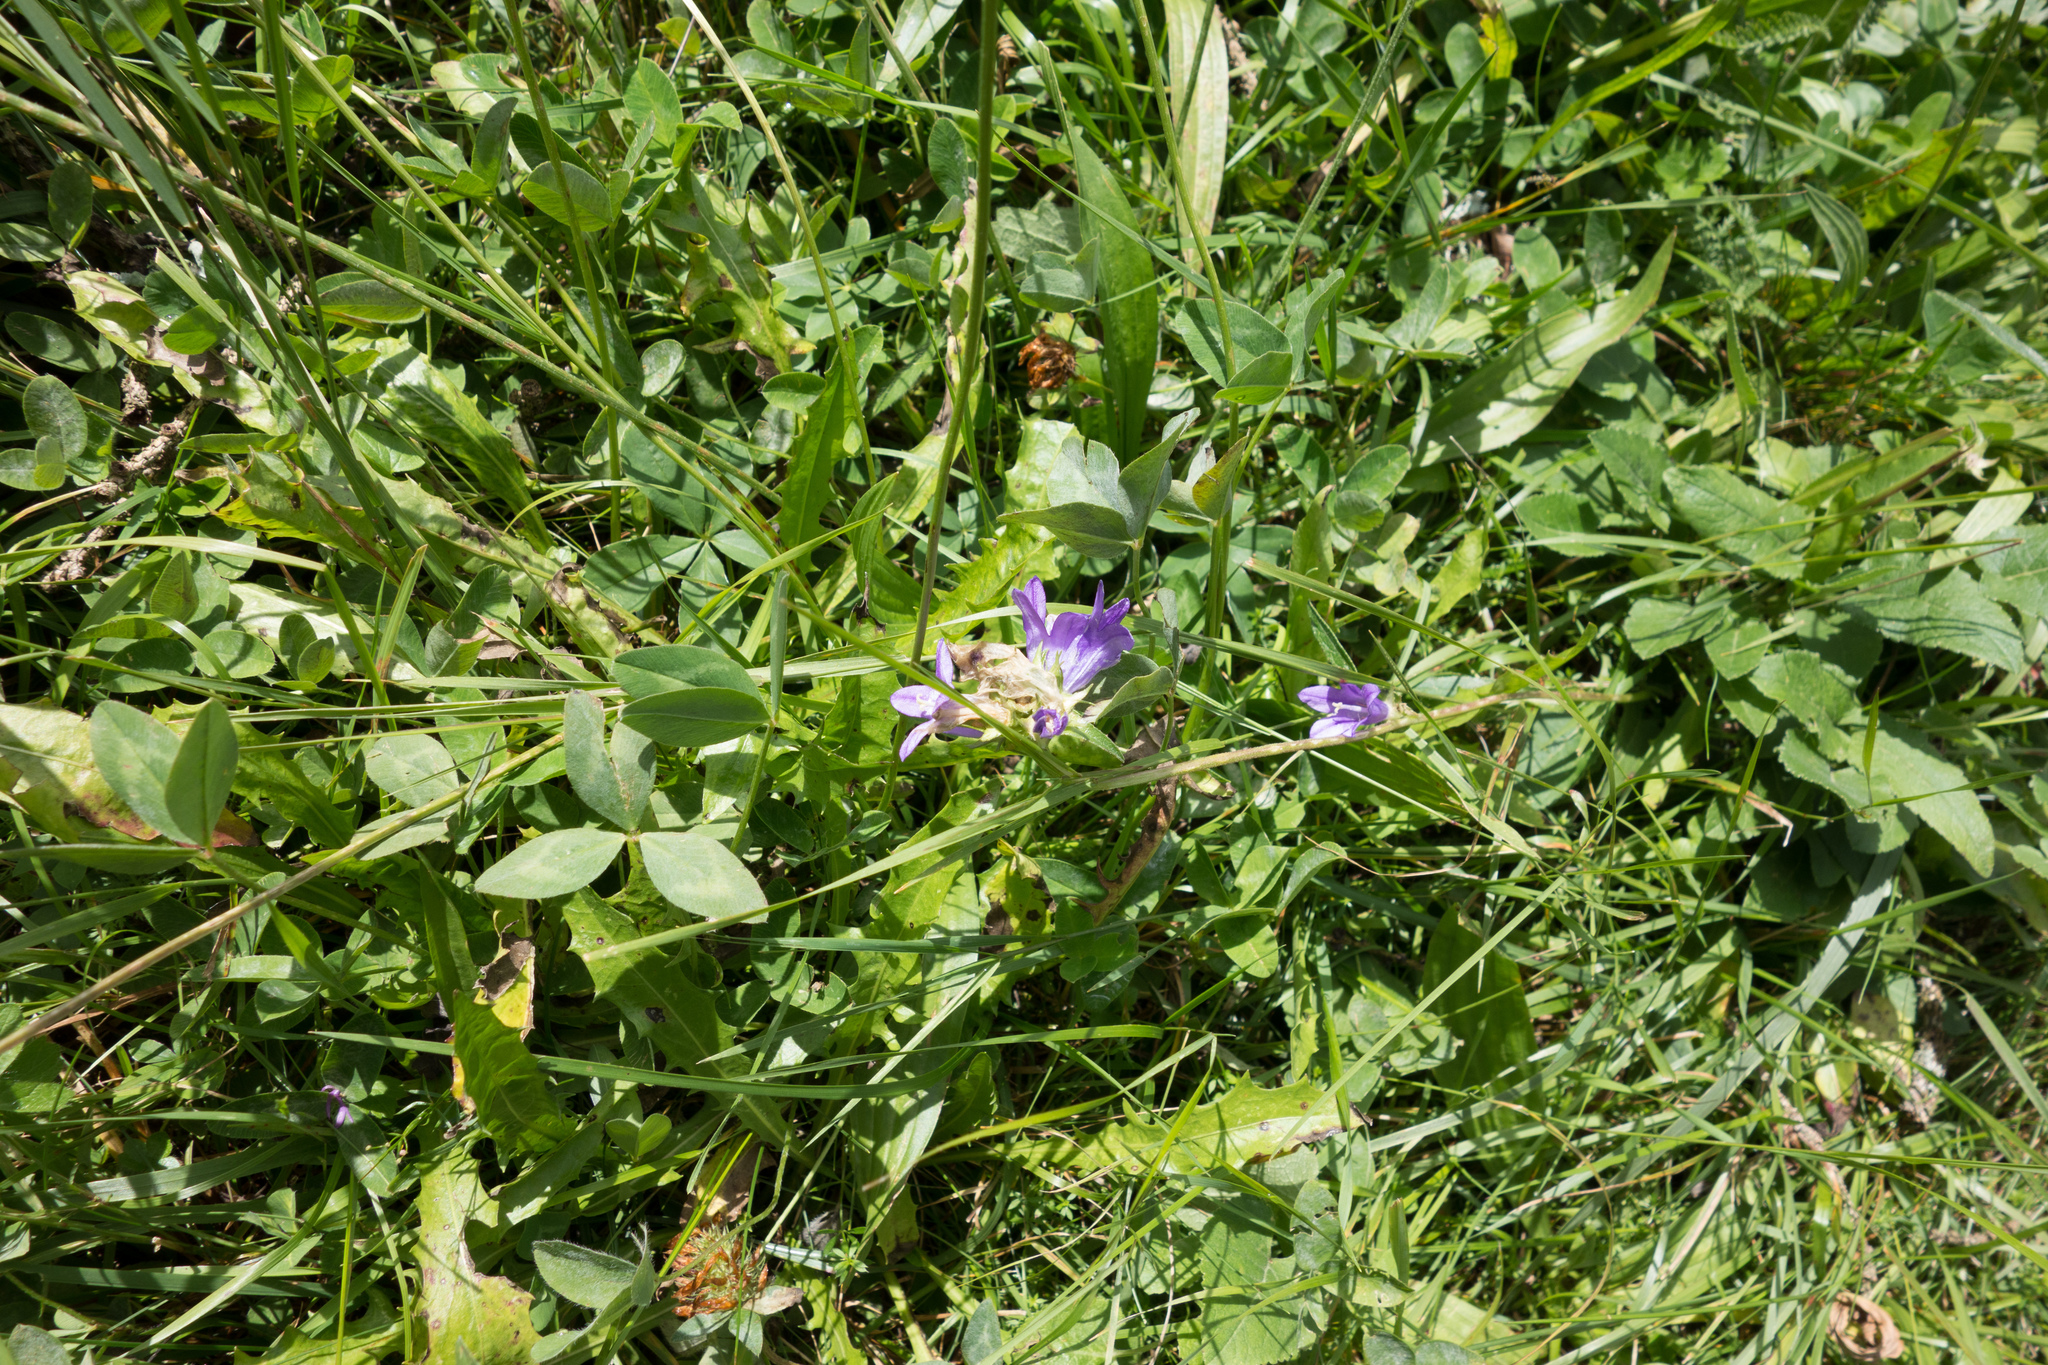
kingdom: Plantae
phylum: Tracheophyta
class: Magnoliopsida
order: Asterales
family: Campanulaceae
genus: Campanula
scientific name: Campanula glomerata
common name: Clustered bellflower
